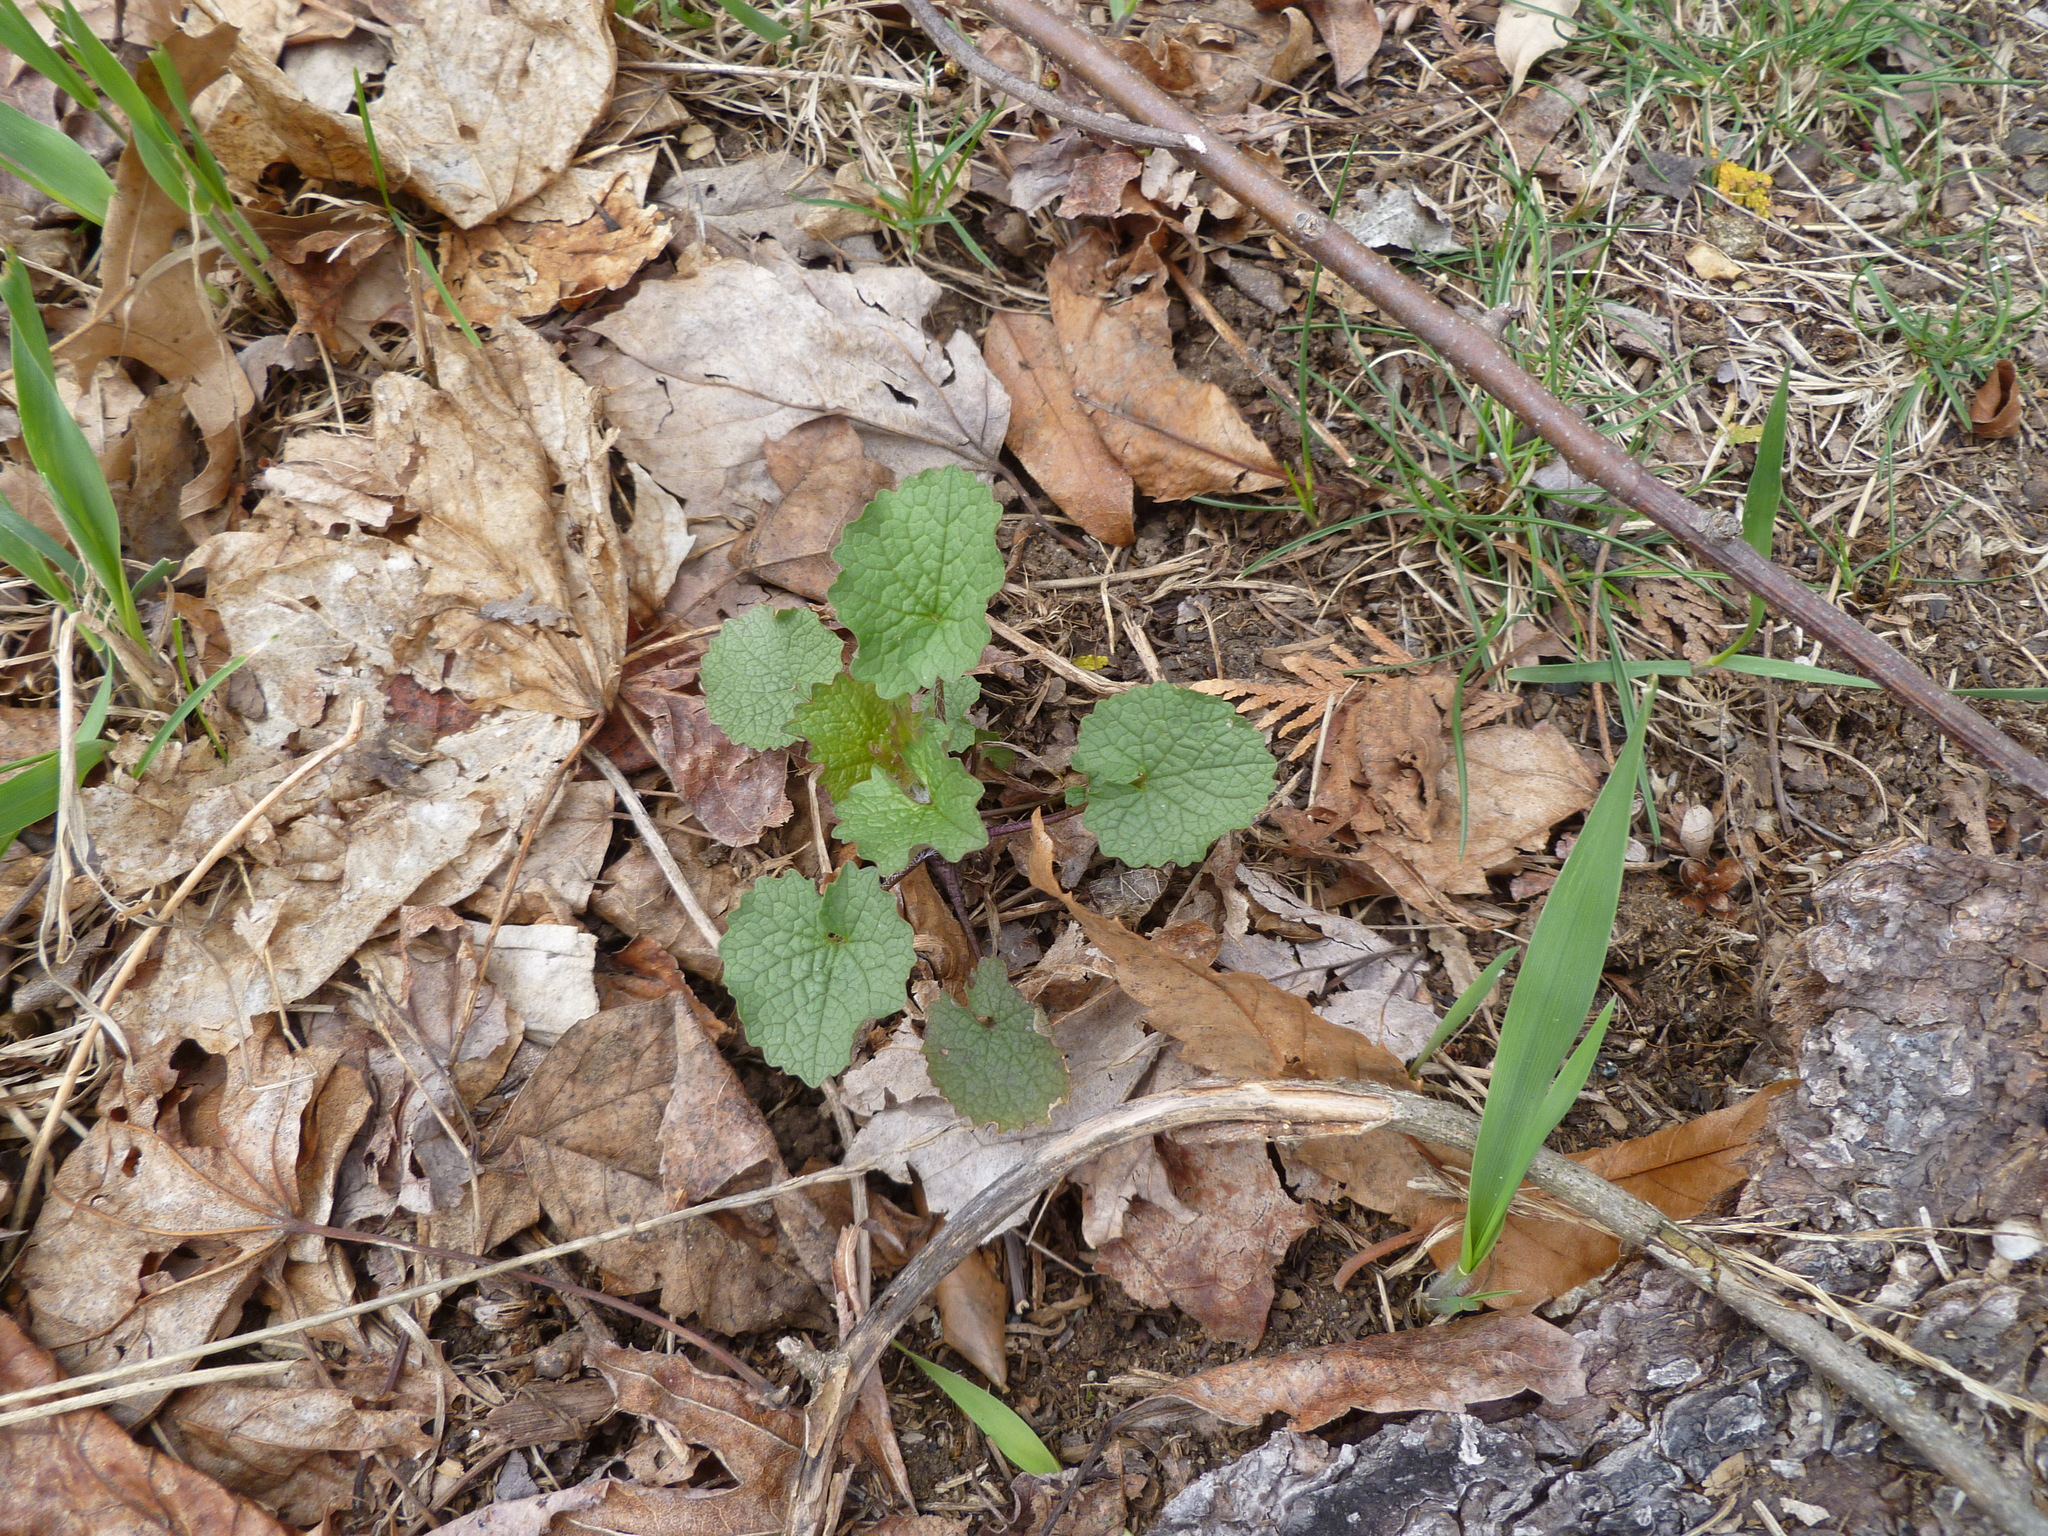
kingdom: Plantae
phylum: Tracheophyta
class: Magnoliopsida
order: Brassicales
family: Brassicaceae
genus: Alliaria
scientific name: Alliaria petiolata
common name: Garlic mustard
